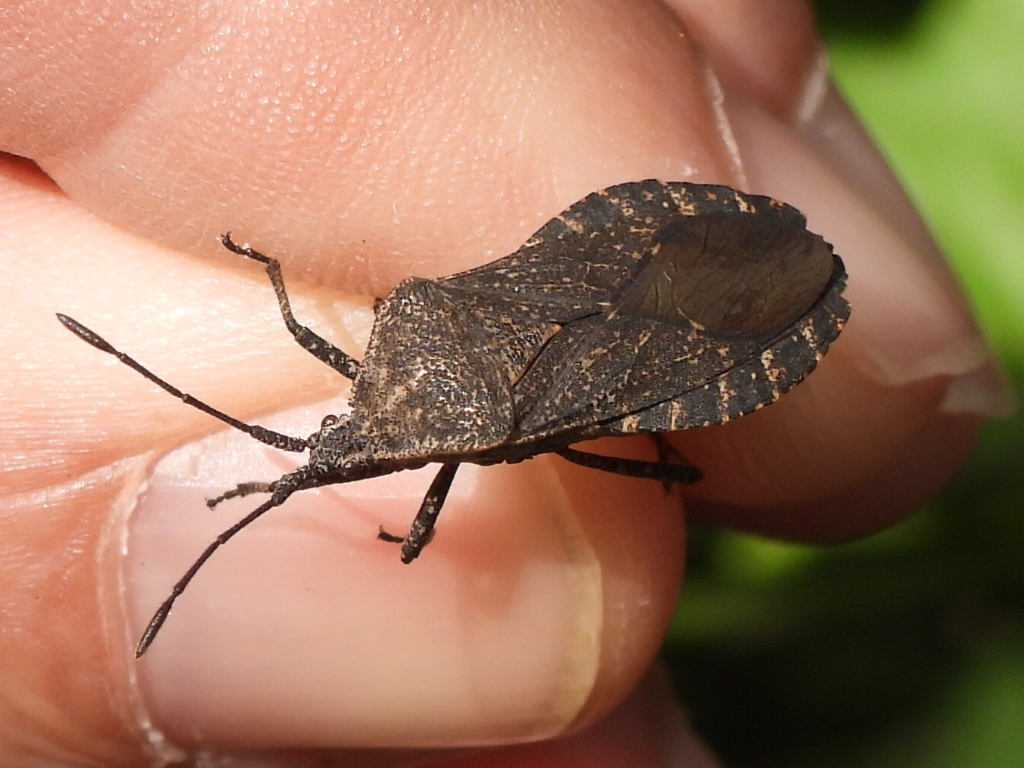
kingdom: Animalia
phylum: Arthropoda
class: Insecta
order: Hemiptera
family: Coreidae
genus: Cimolus
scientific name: Cimolus obscurus
